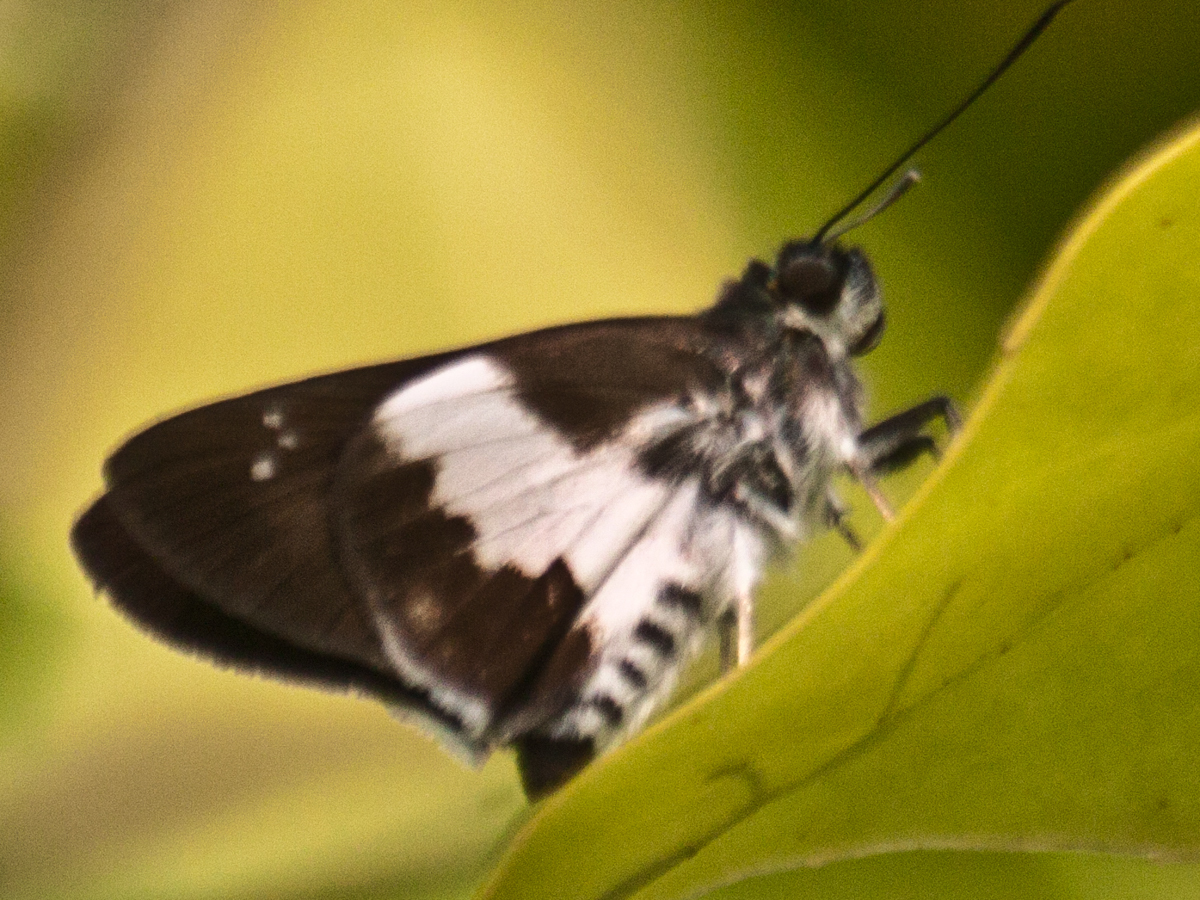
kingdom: Animalia
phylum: Arthropoda
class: Insecta
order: Lepidoptera
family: Hesperiidae
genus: Acerbas
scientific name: Acerbas anthea
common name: White palmer
